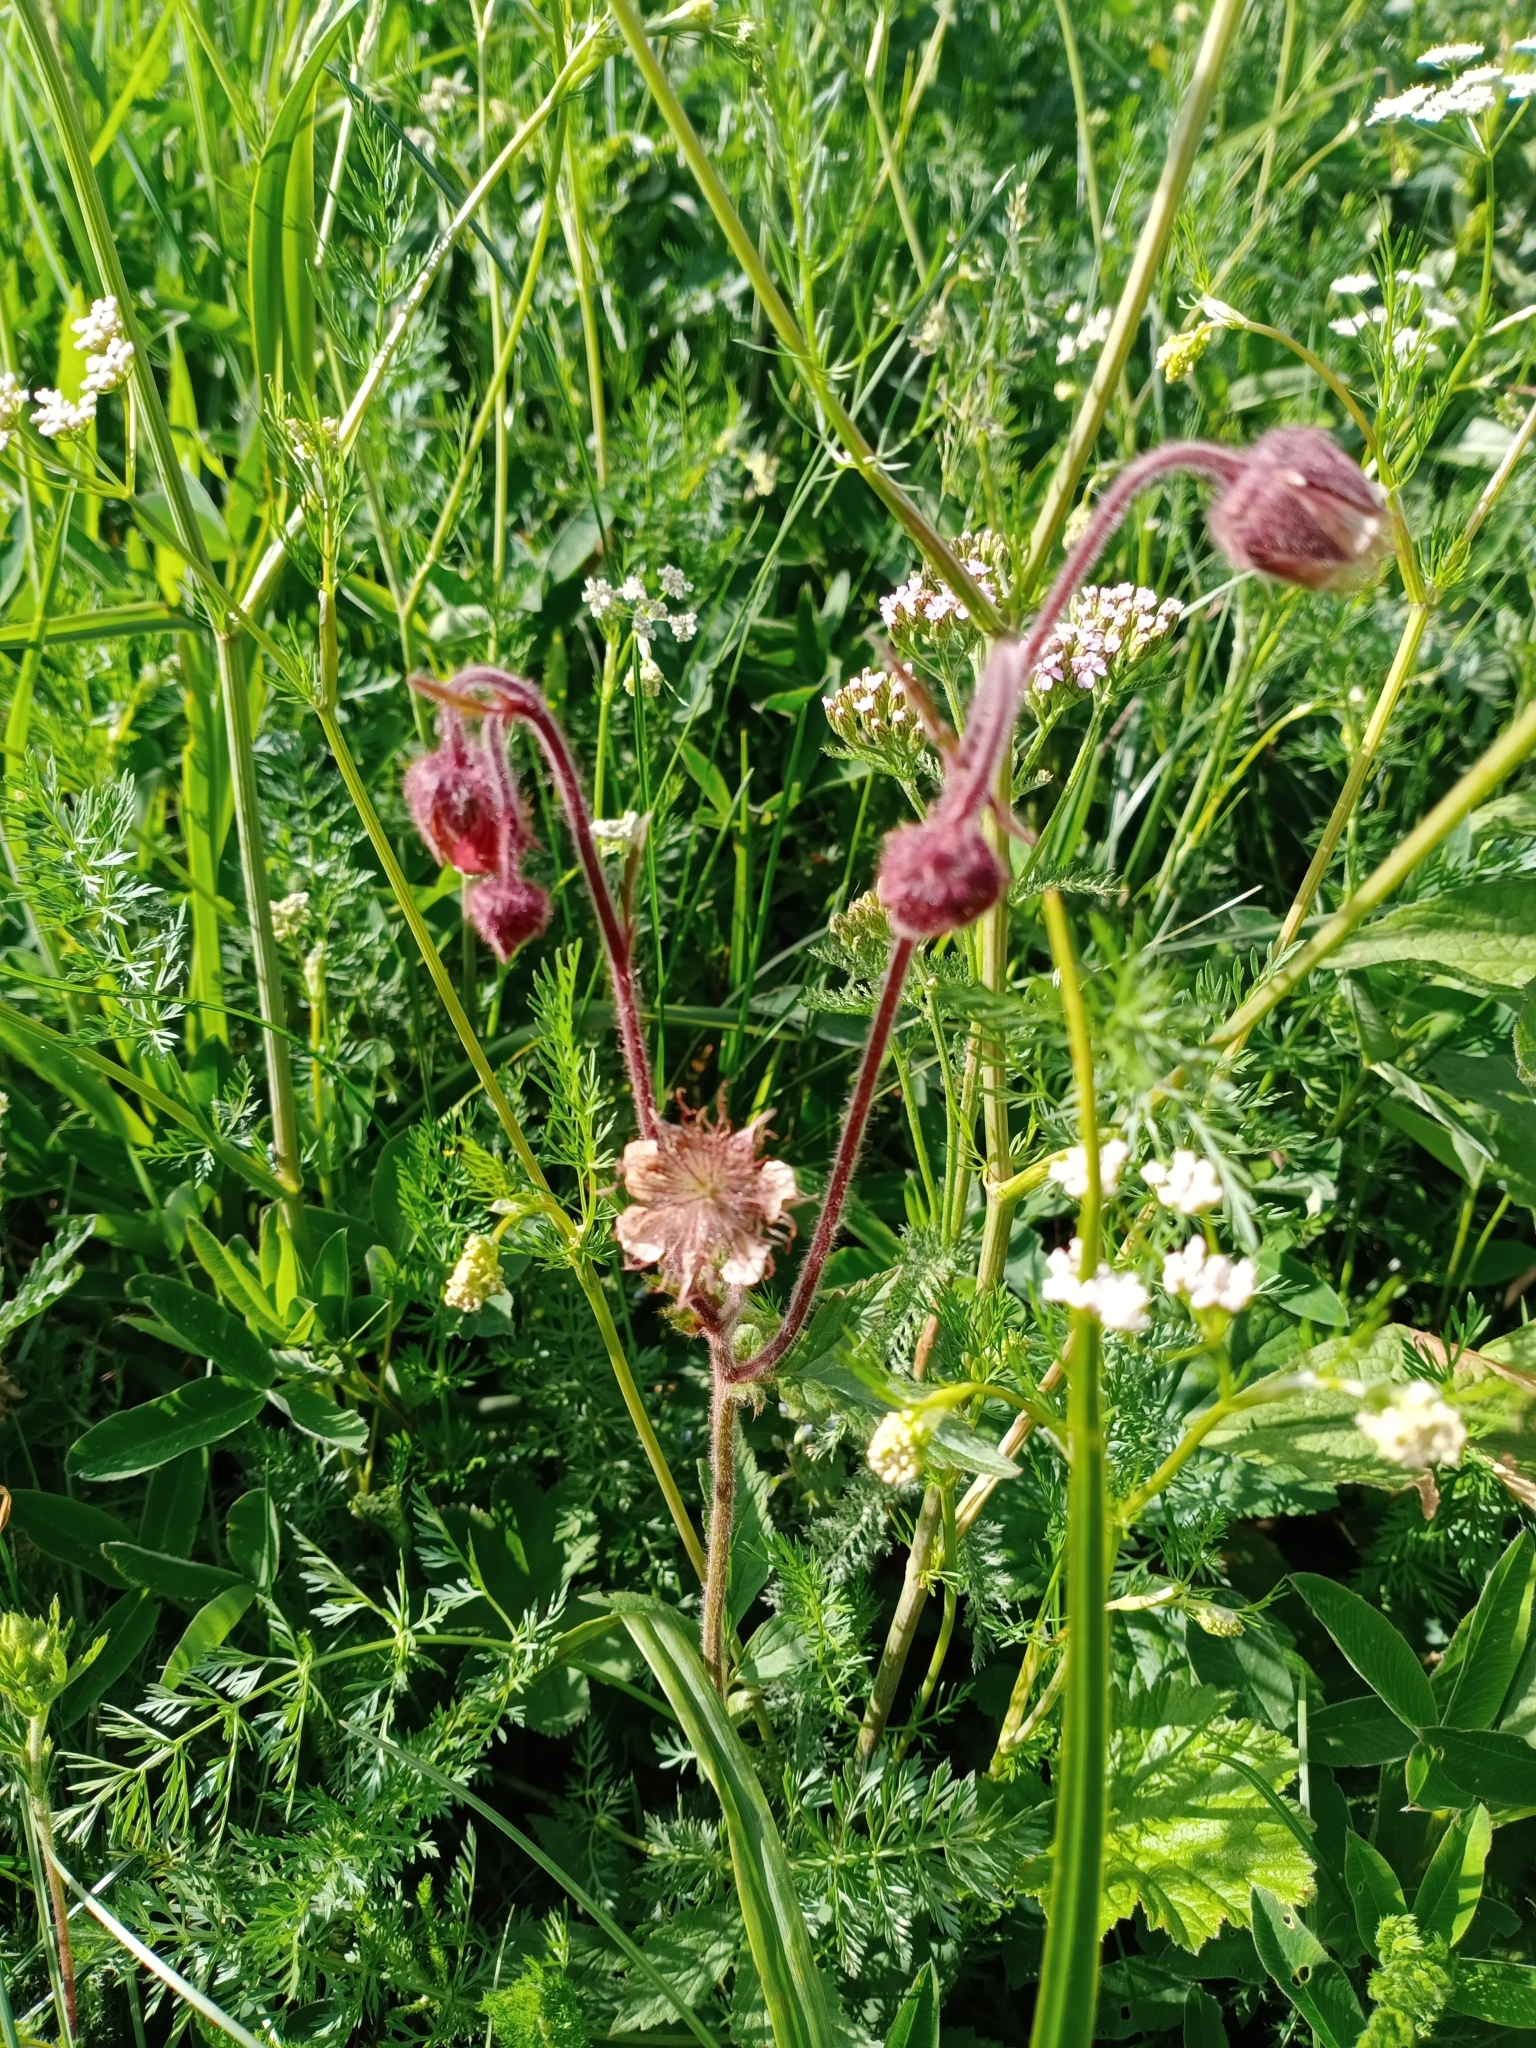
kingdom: Plantae
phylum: Tracheophyta
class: Magnoliopsida
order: Rosales
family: Rosaceae
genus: Geum
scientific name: Geum rivale
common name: Water avens
